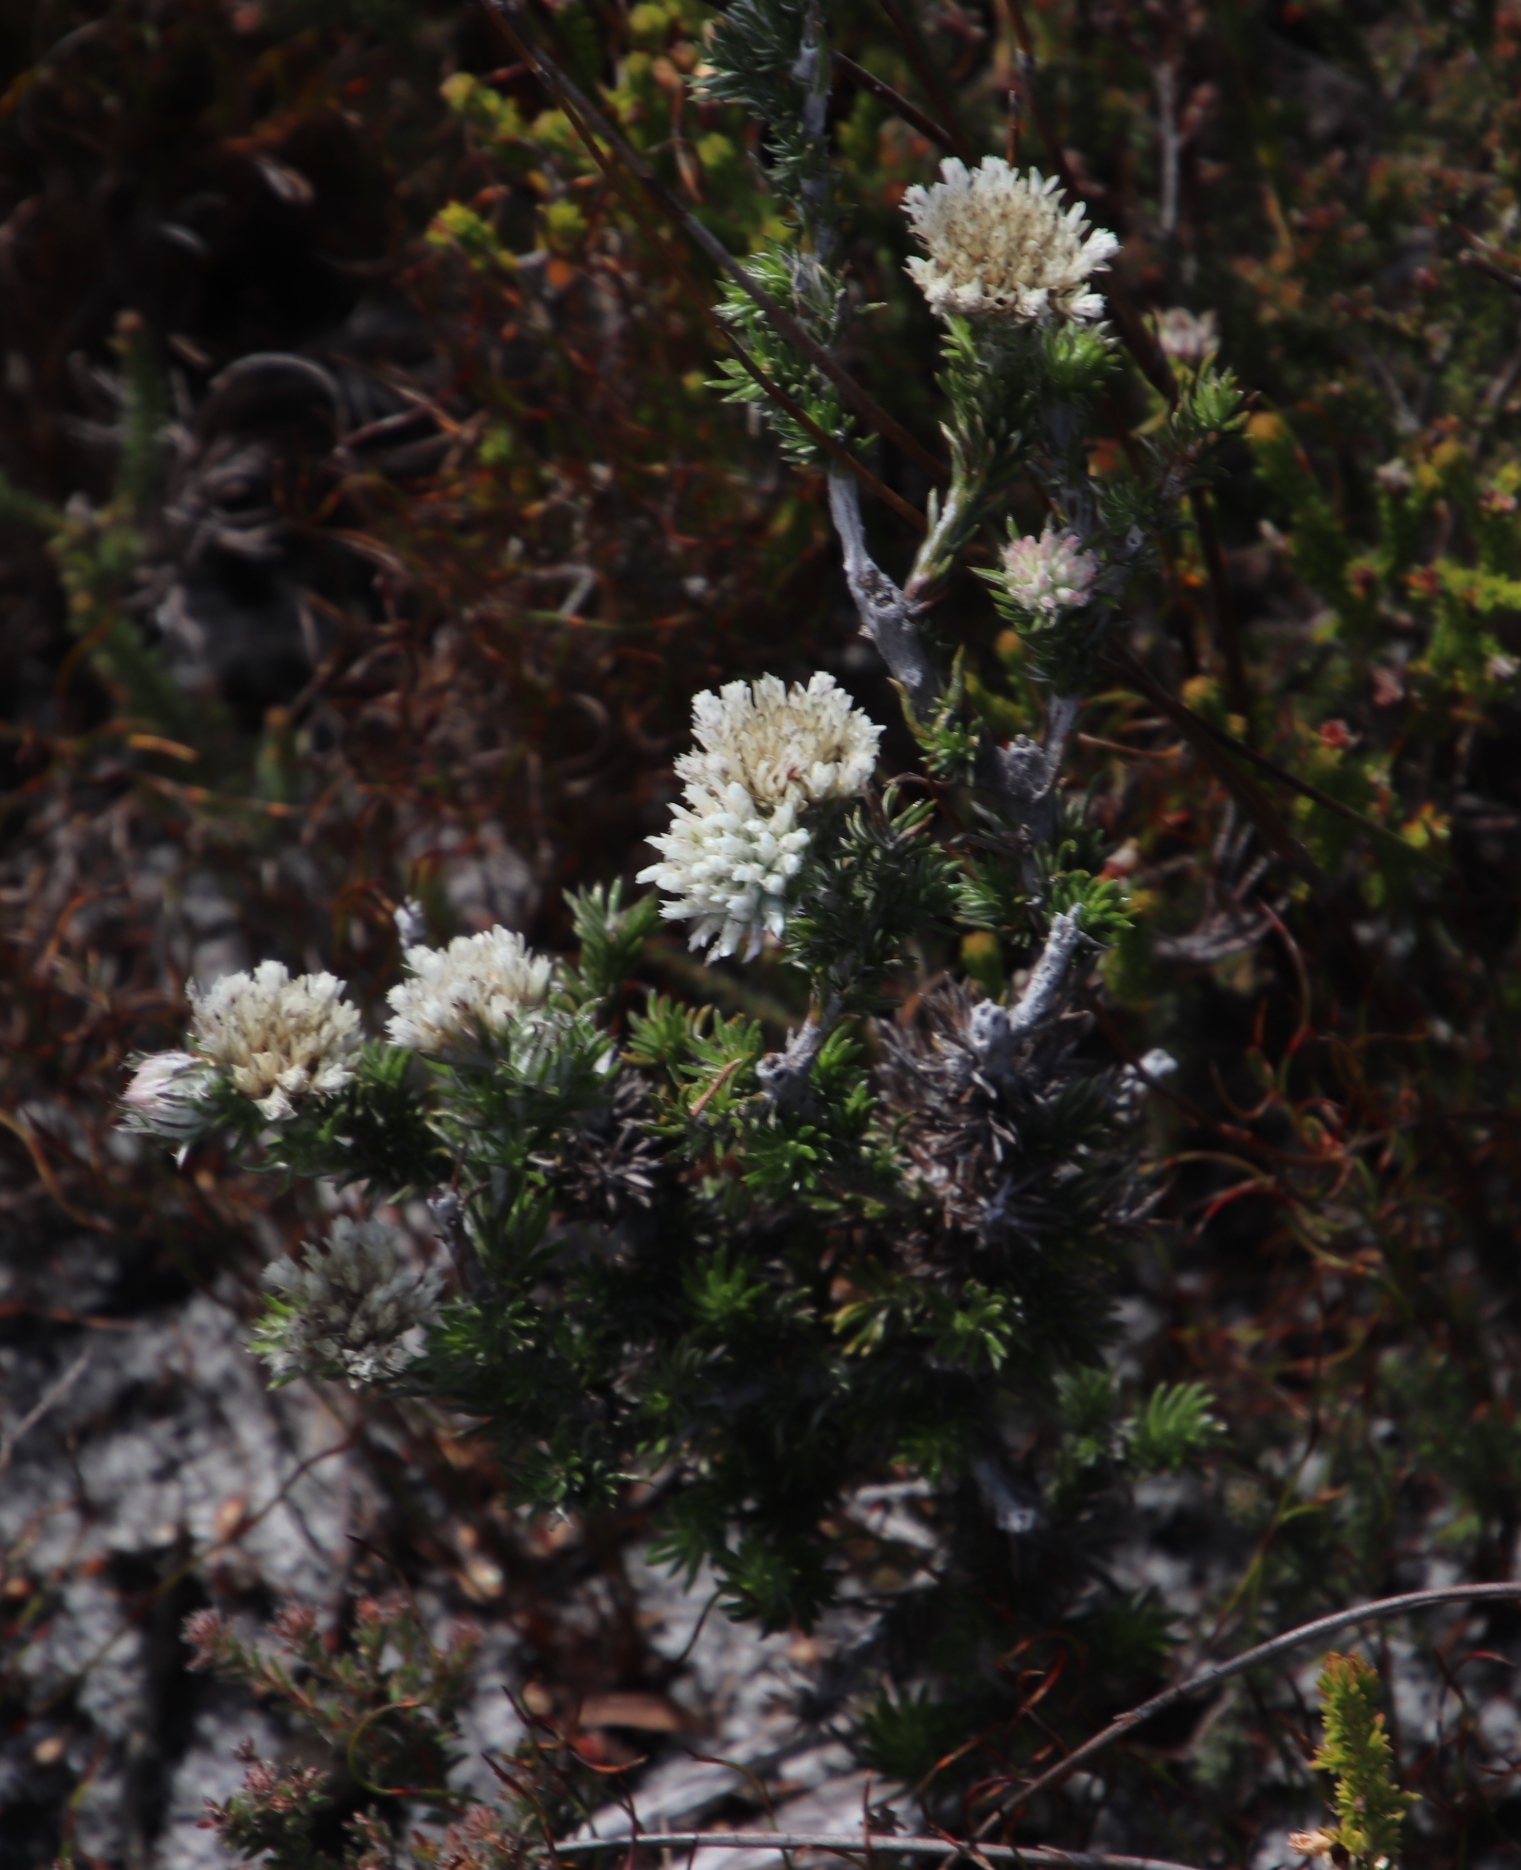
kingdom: Plantae
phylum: Tracheophyta
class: Magnoliopsida
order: Asterales
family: Asteraceae
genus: Metalasia
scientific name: Metalasia compacta
